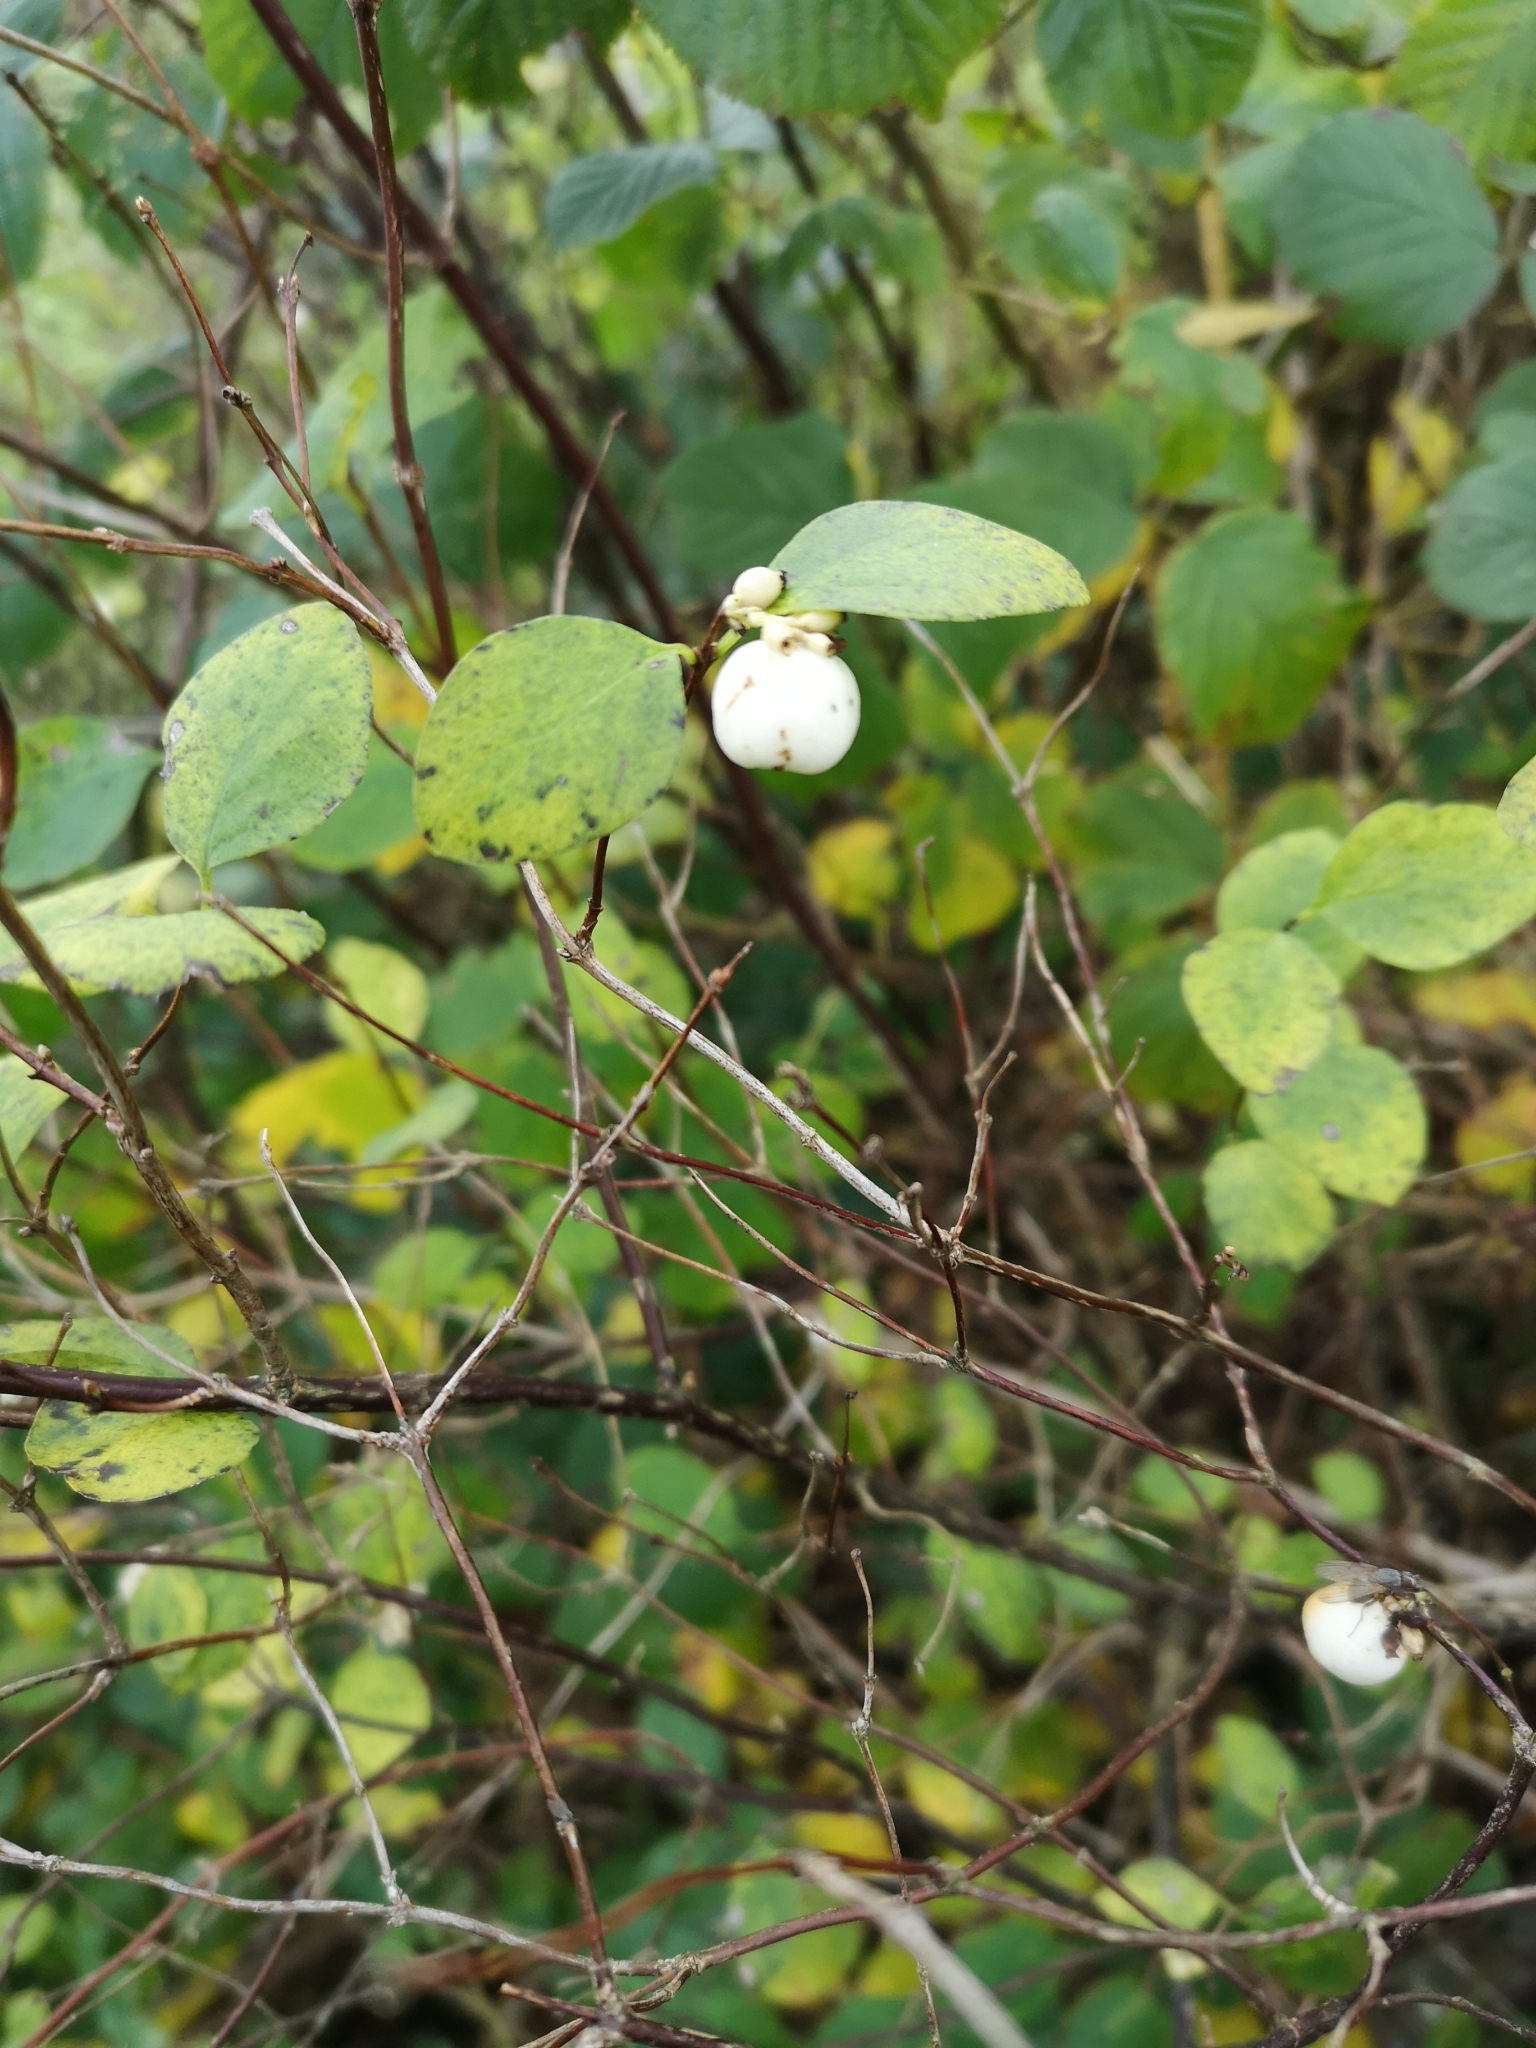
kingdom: Plantae
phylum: Tracheophyta
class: Magnoliopsida
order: Dipsacales
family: Caprifoliaceae
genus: Symphoricarpos
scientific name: Symphoricarpos albus
